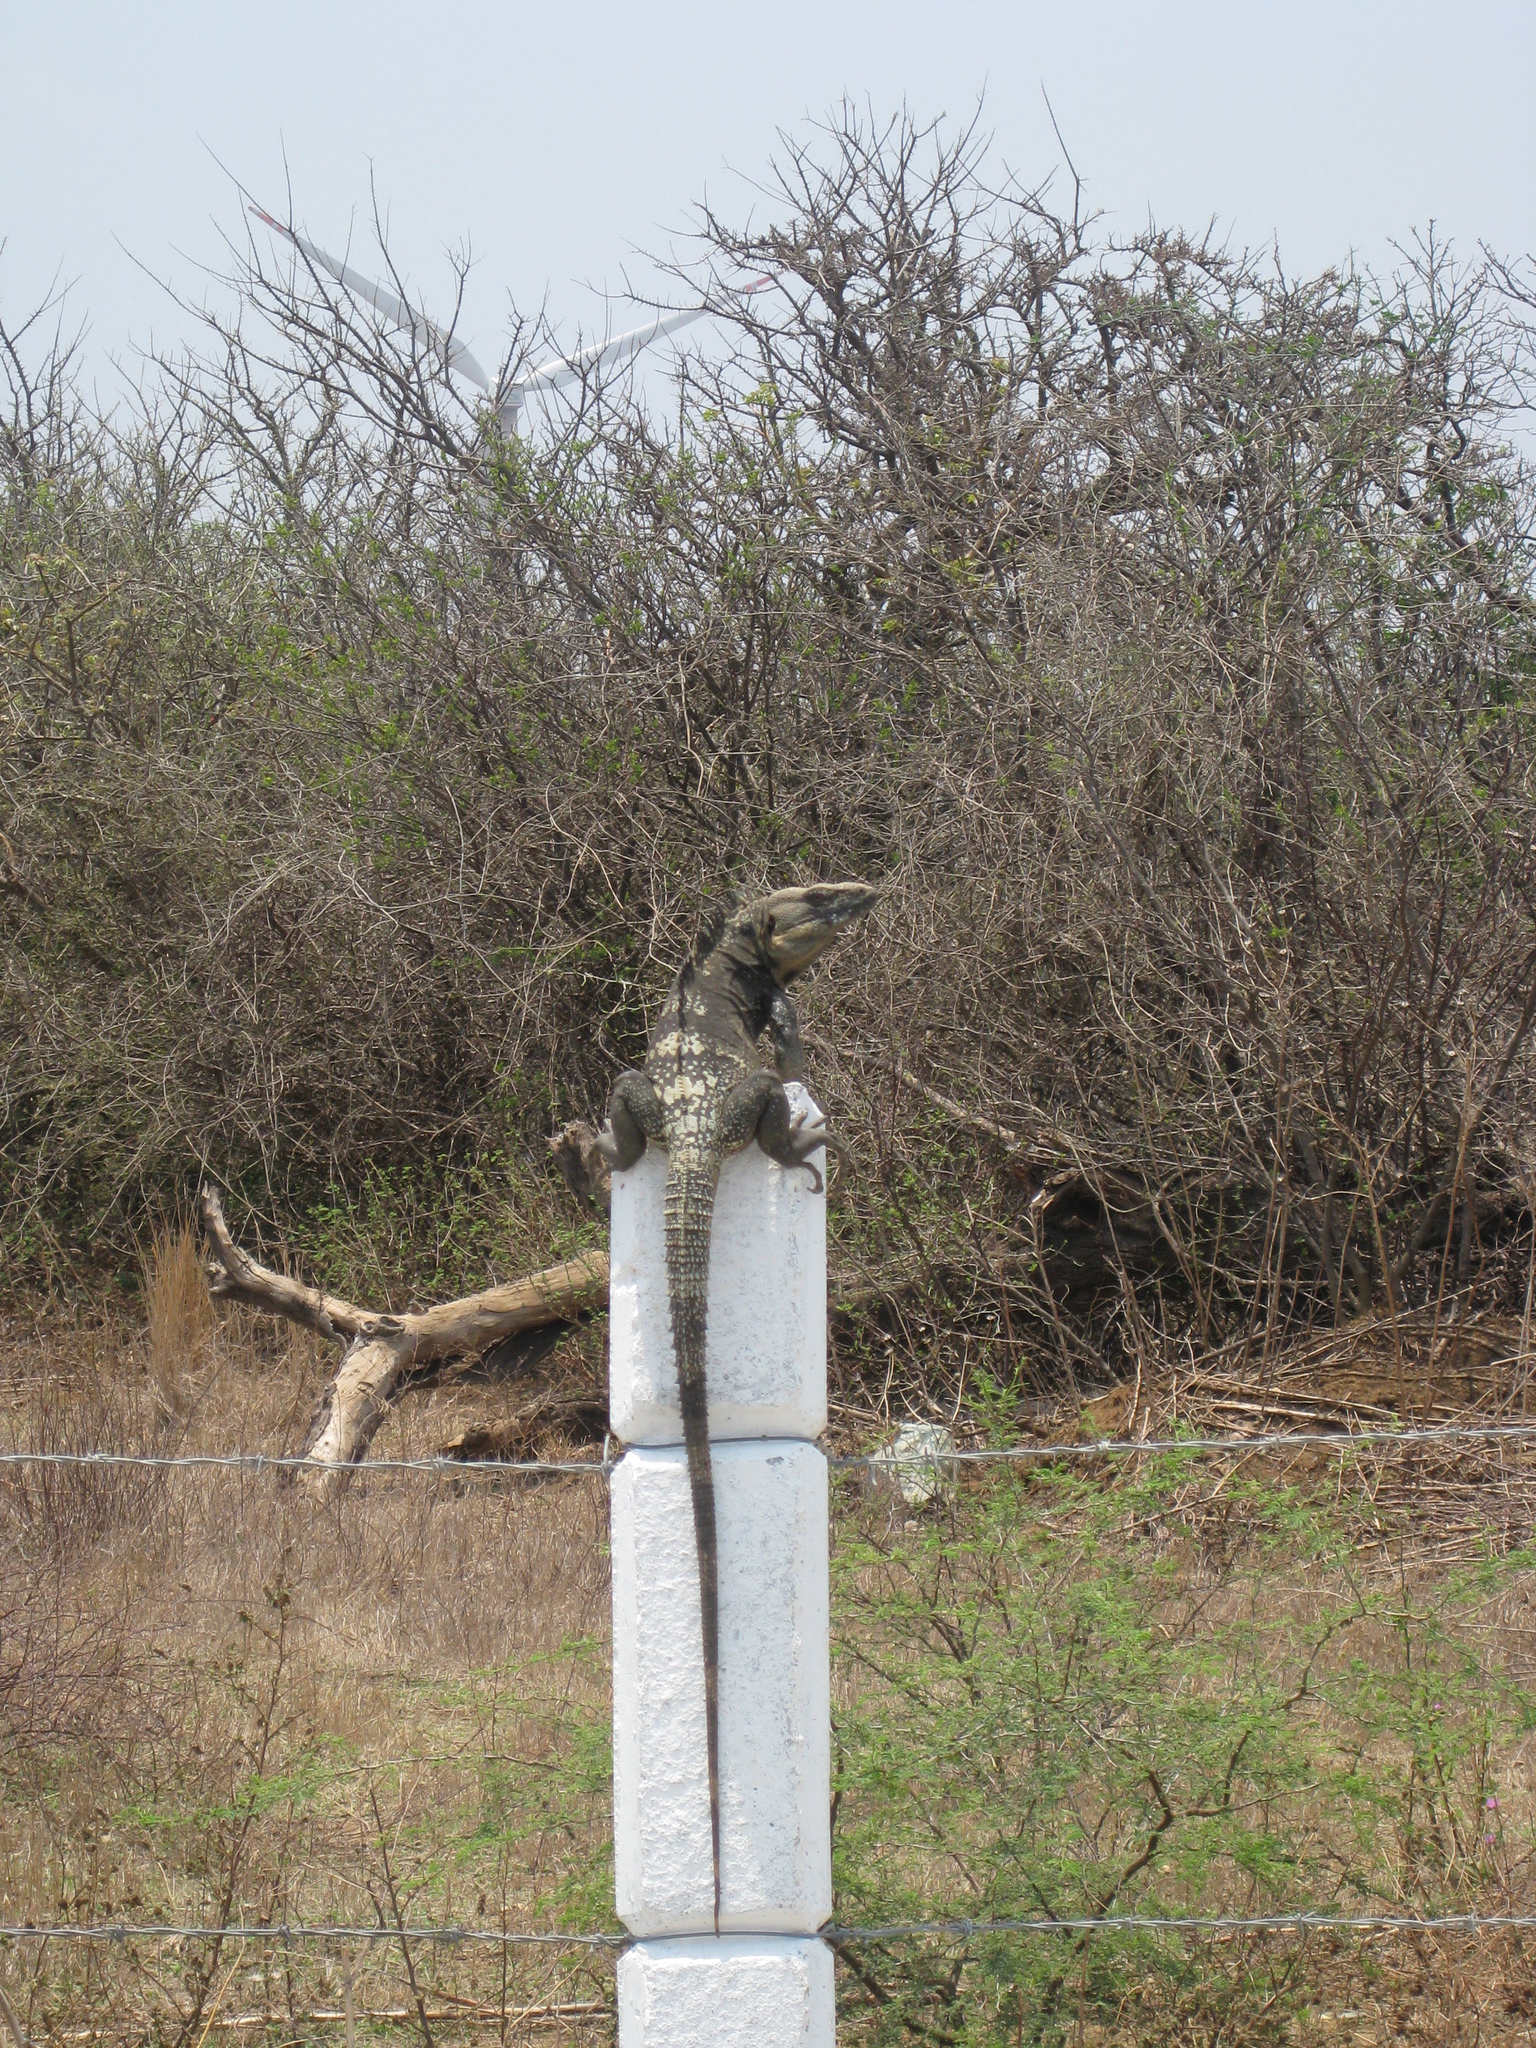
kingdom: Animalia
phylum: Chordata
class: Squamata
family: Iguanidae
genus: Ctenosaura
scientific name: Ctenosaura pectinata
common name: Guerreran spiny-tailed iguana
